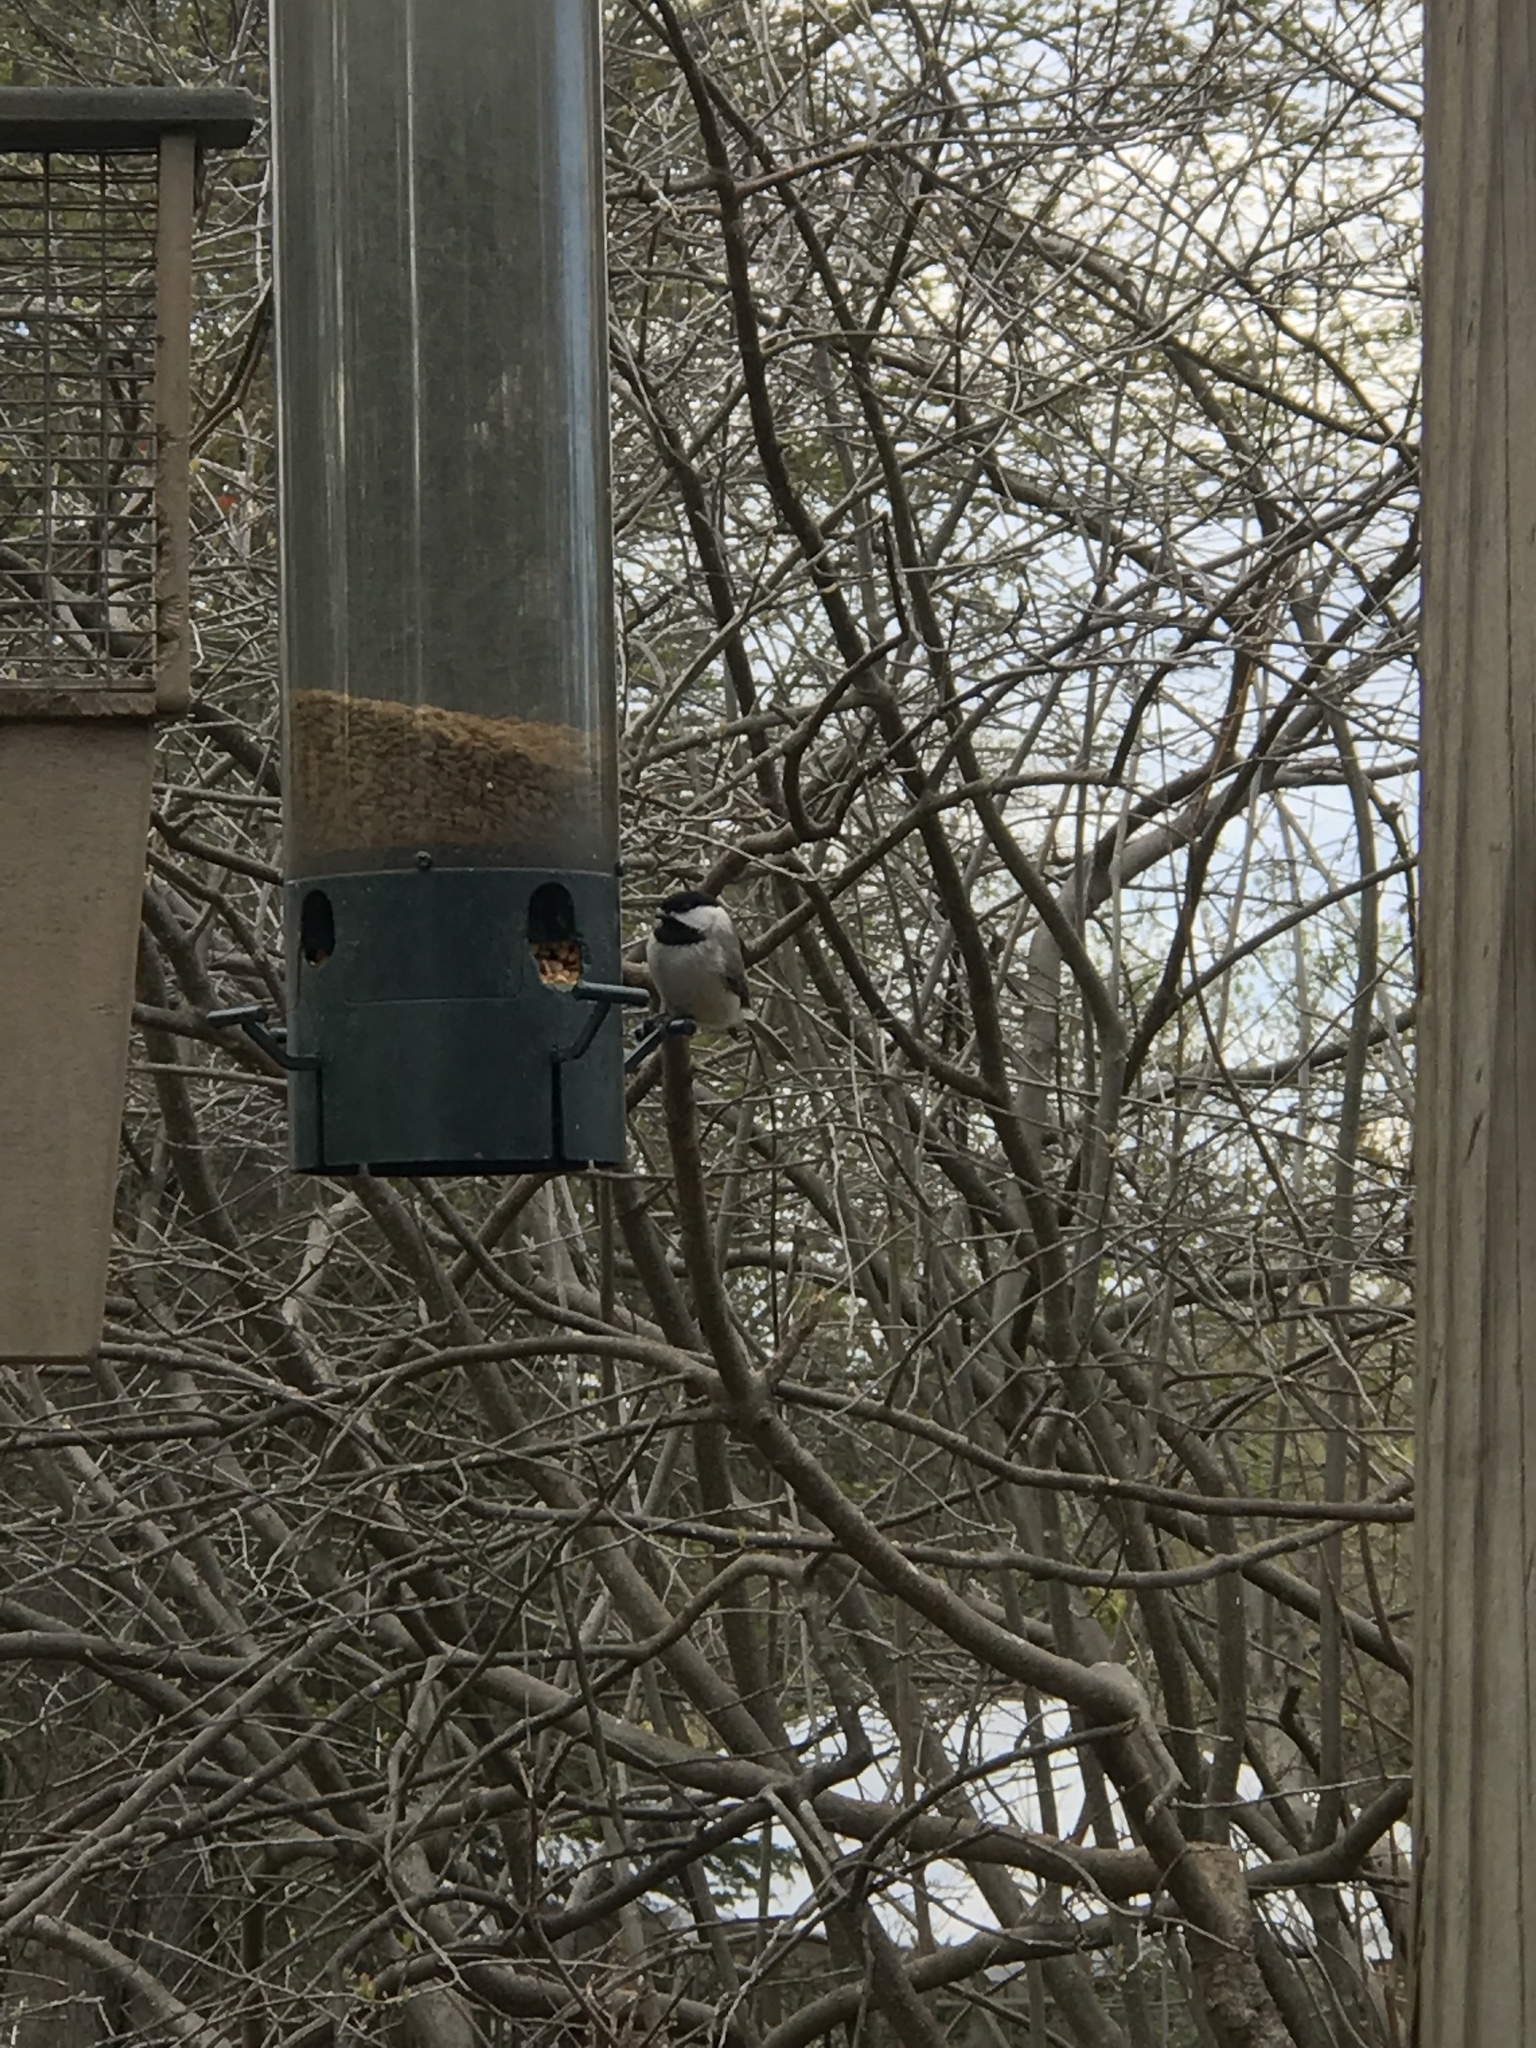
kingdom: Animalia
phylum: Chordata
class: Aves
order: Passeriformes
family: Paridae
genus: Poecile
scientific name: Poecile carolinensis
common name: Carolina chickadee
